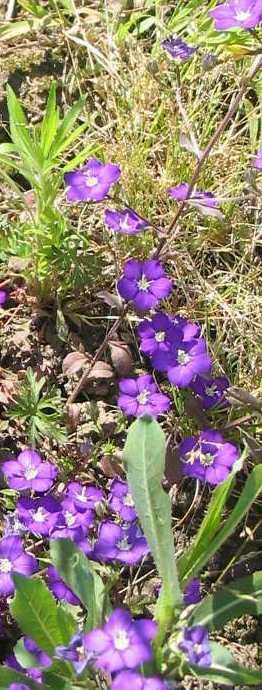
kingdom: Plantae
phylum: Tracheophyta
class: Magnoliopsida
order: Asterales
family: Campanulaceae
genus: Legousia
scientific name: Legousia speculum-veneris
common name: Large venus's-looking-glass
